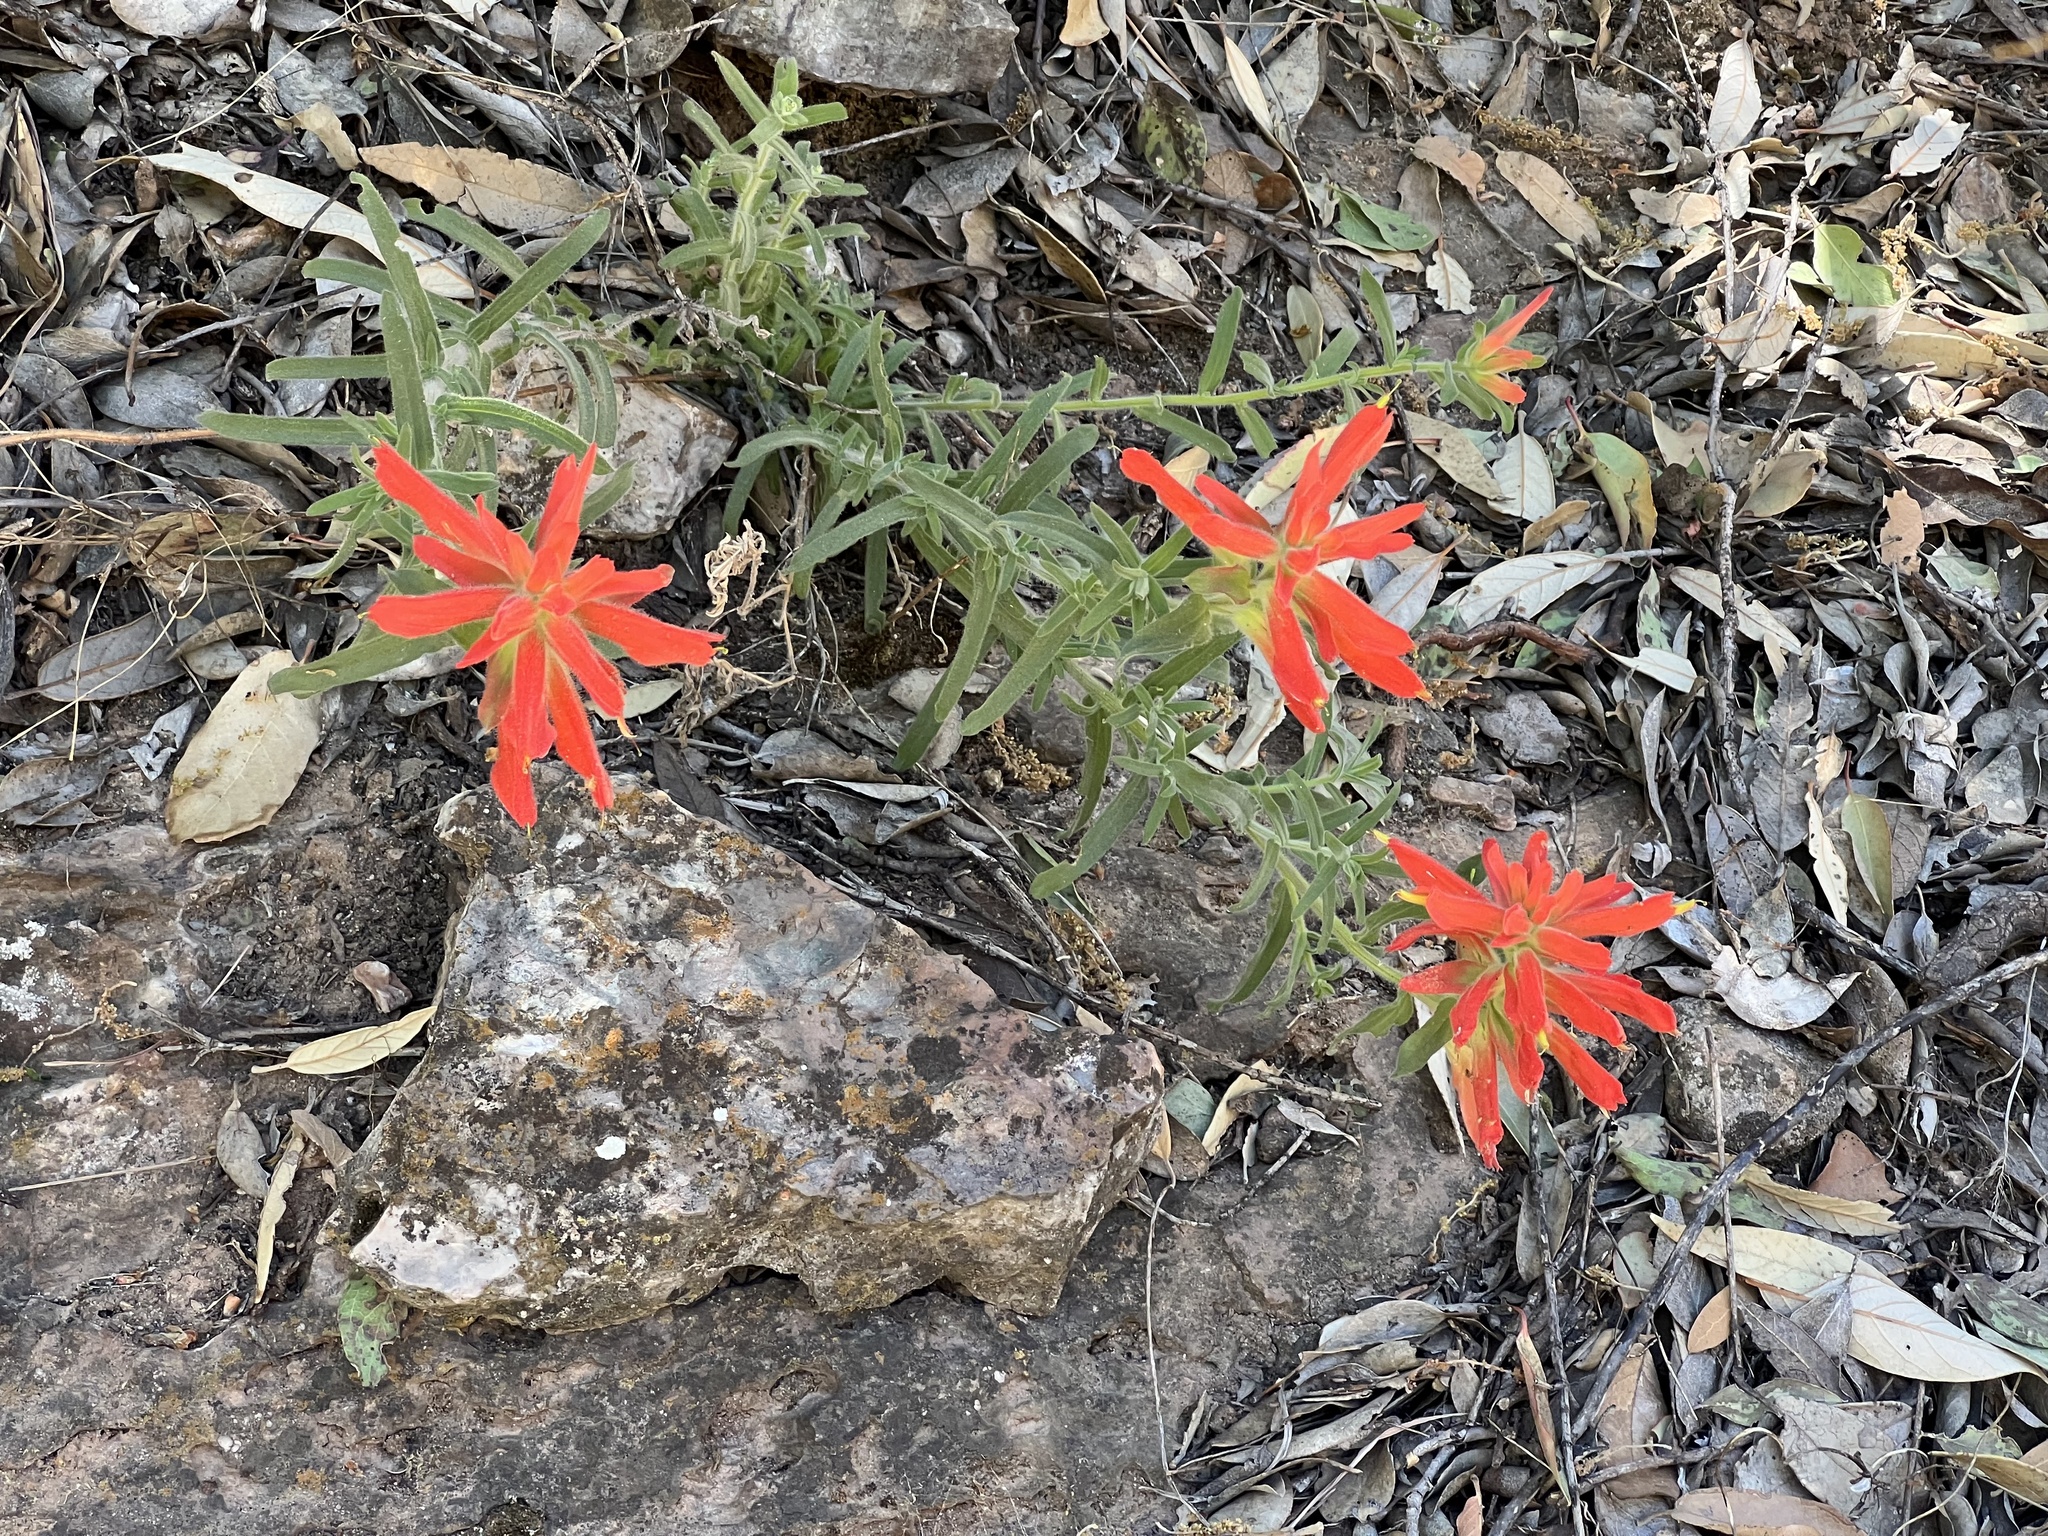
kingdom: Plantae
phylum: Tracheophyta
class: Magnoliopsida
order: Lamiales
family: Orobanchaceae
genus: Castilleja
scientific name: Castilleja tenuiflora
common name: Santa catalina indian paintbrush
